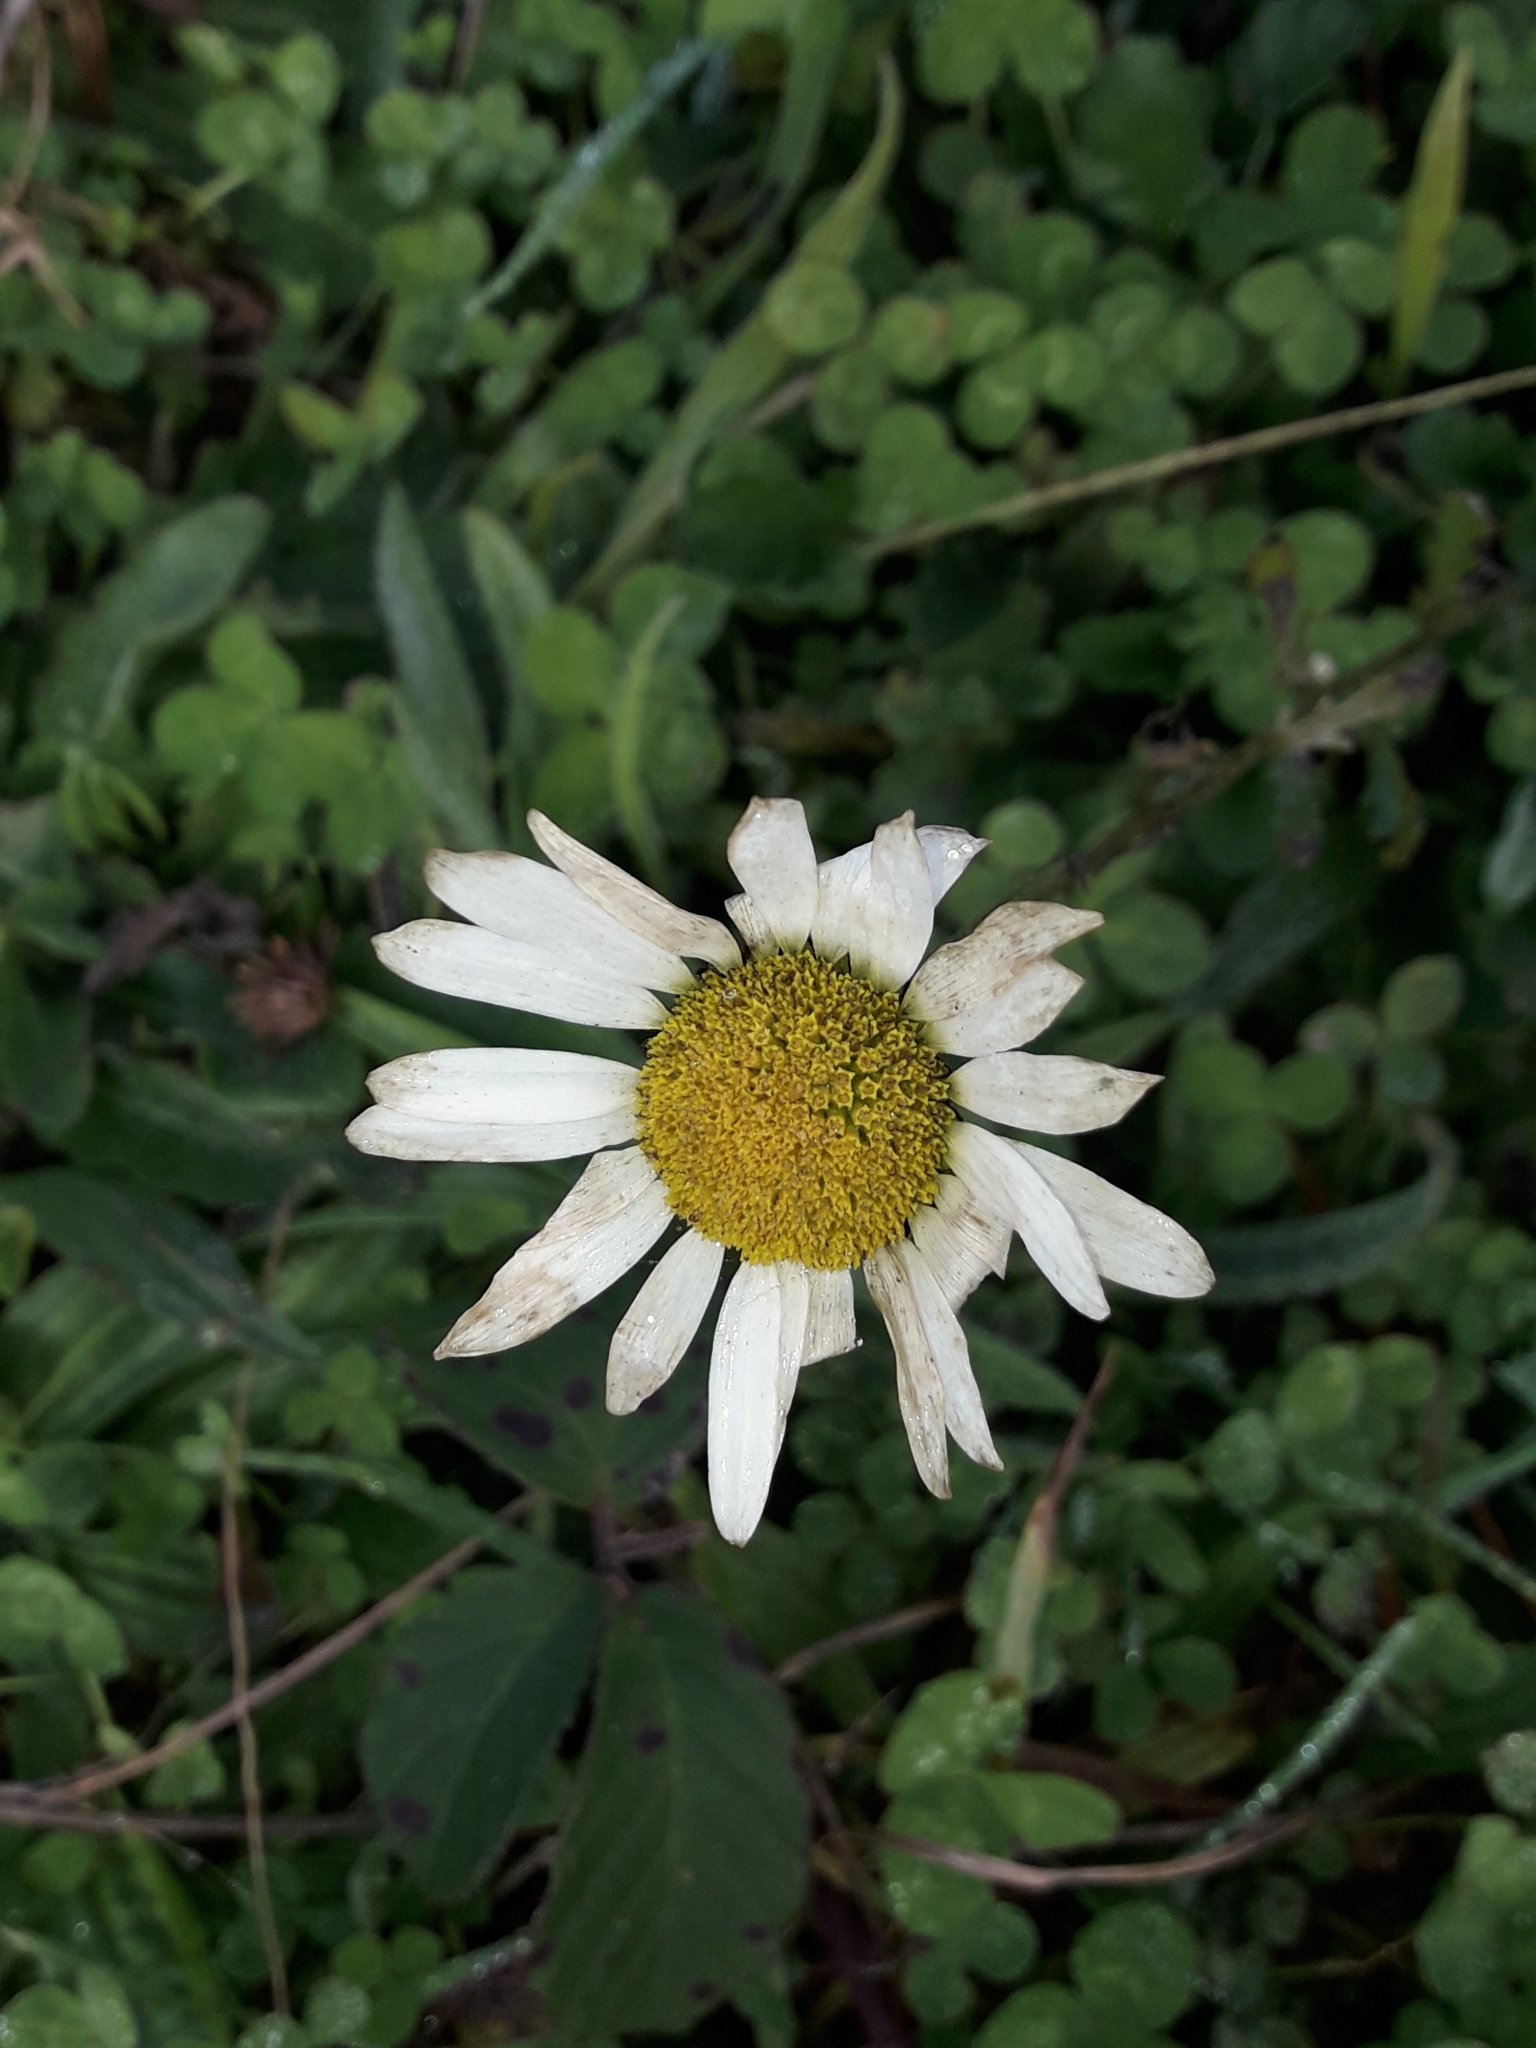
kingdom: Plantae
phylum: Tracheophyta
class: Magnoliopsida
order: Asterales
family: Asteraceae
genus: Leucanthemum
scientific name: Leucanthemum vulgare
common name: Oxeye daisy
